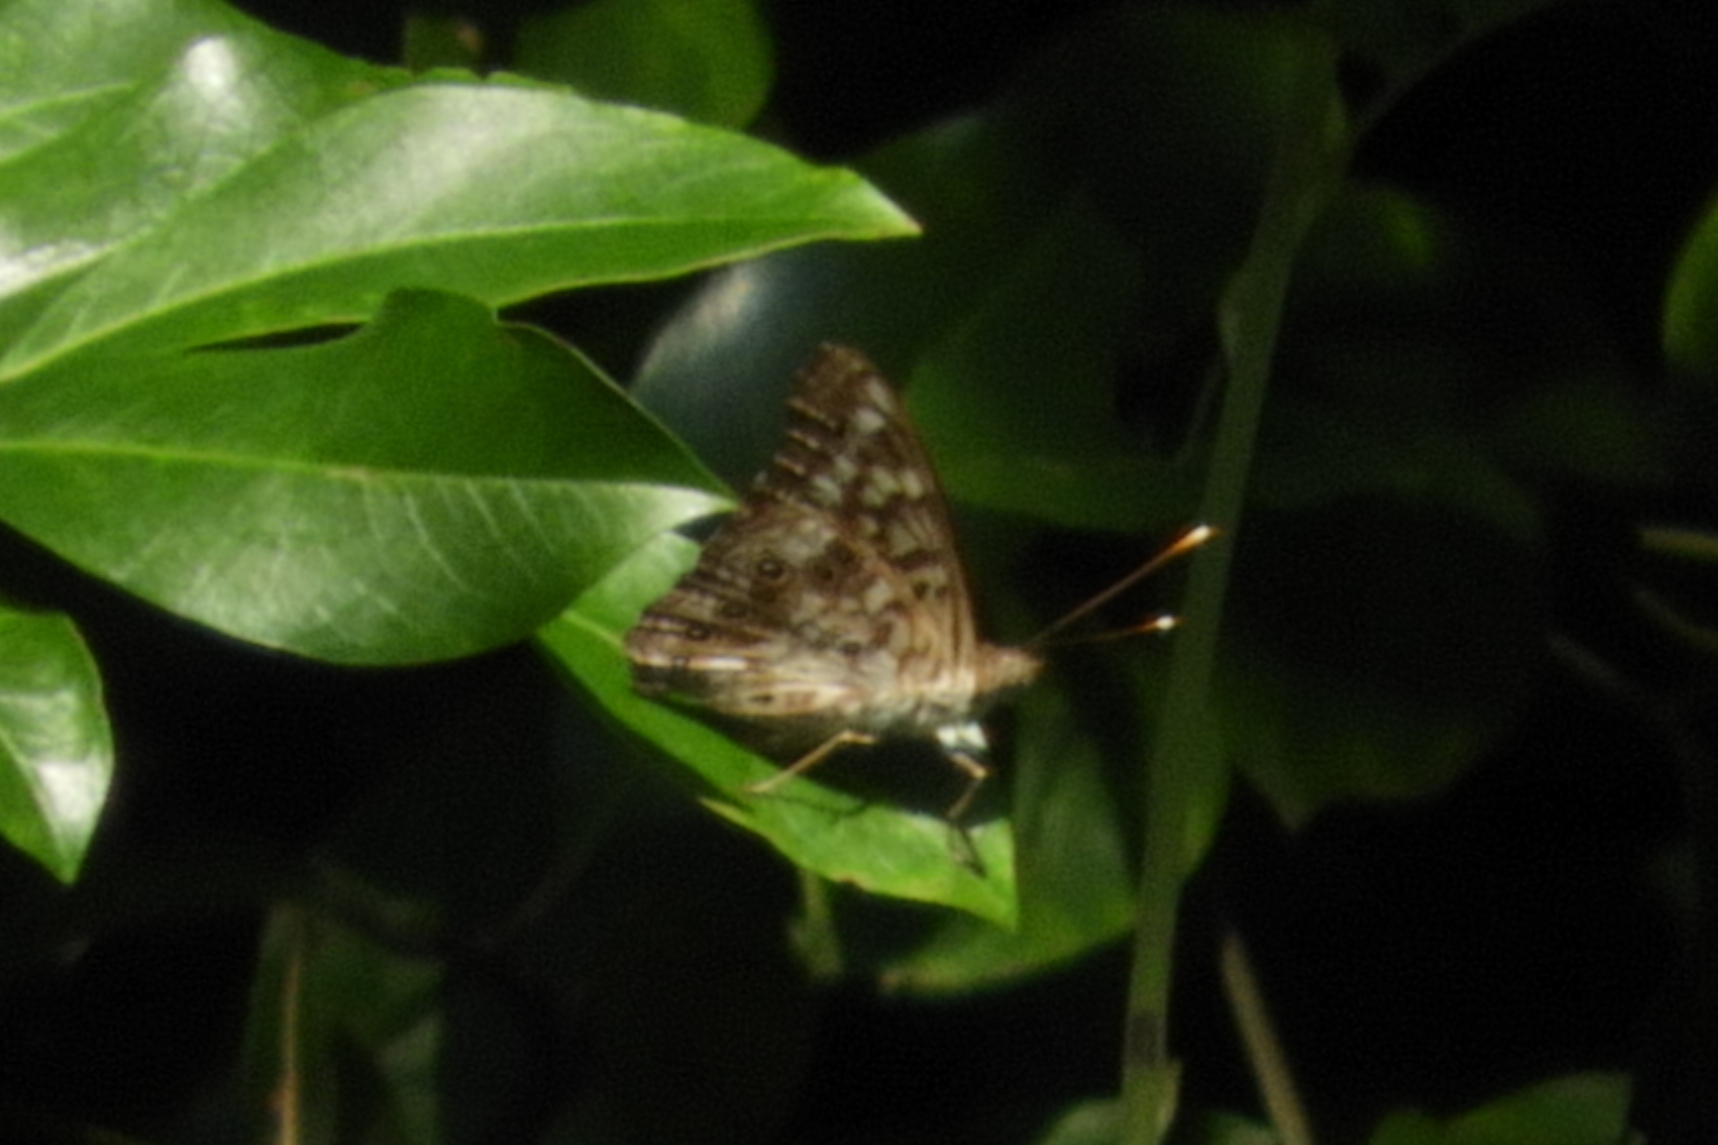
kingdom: Animalia
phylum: Arthropoda
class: Insecta
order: Lepidoptera
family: Nymphalidae
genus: Asterocampa
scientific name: Asterocampa celtis
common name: Hackberry emperor
